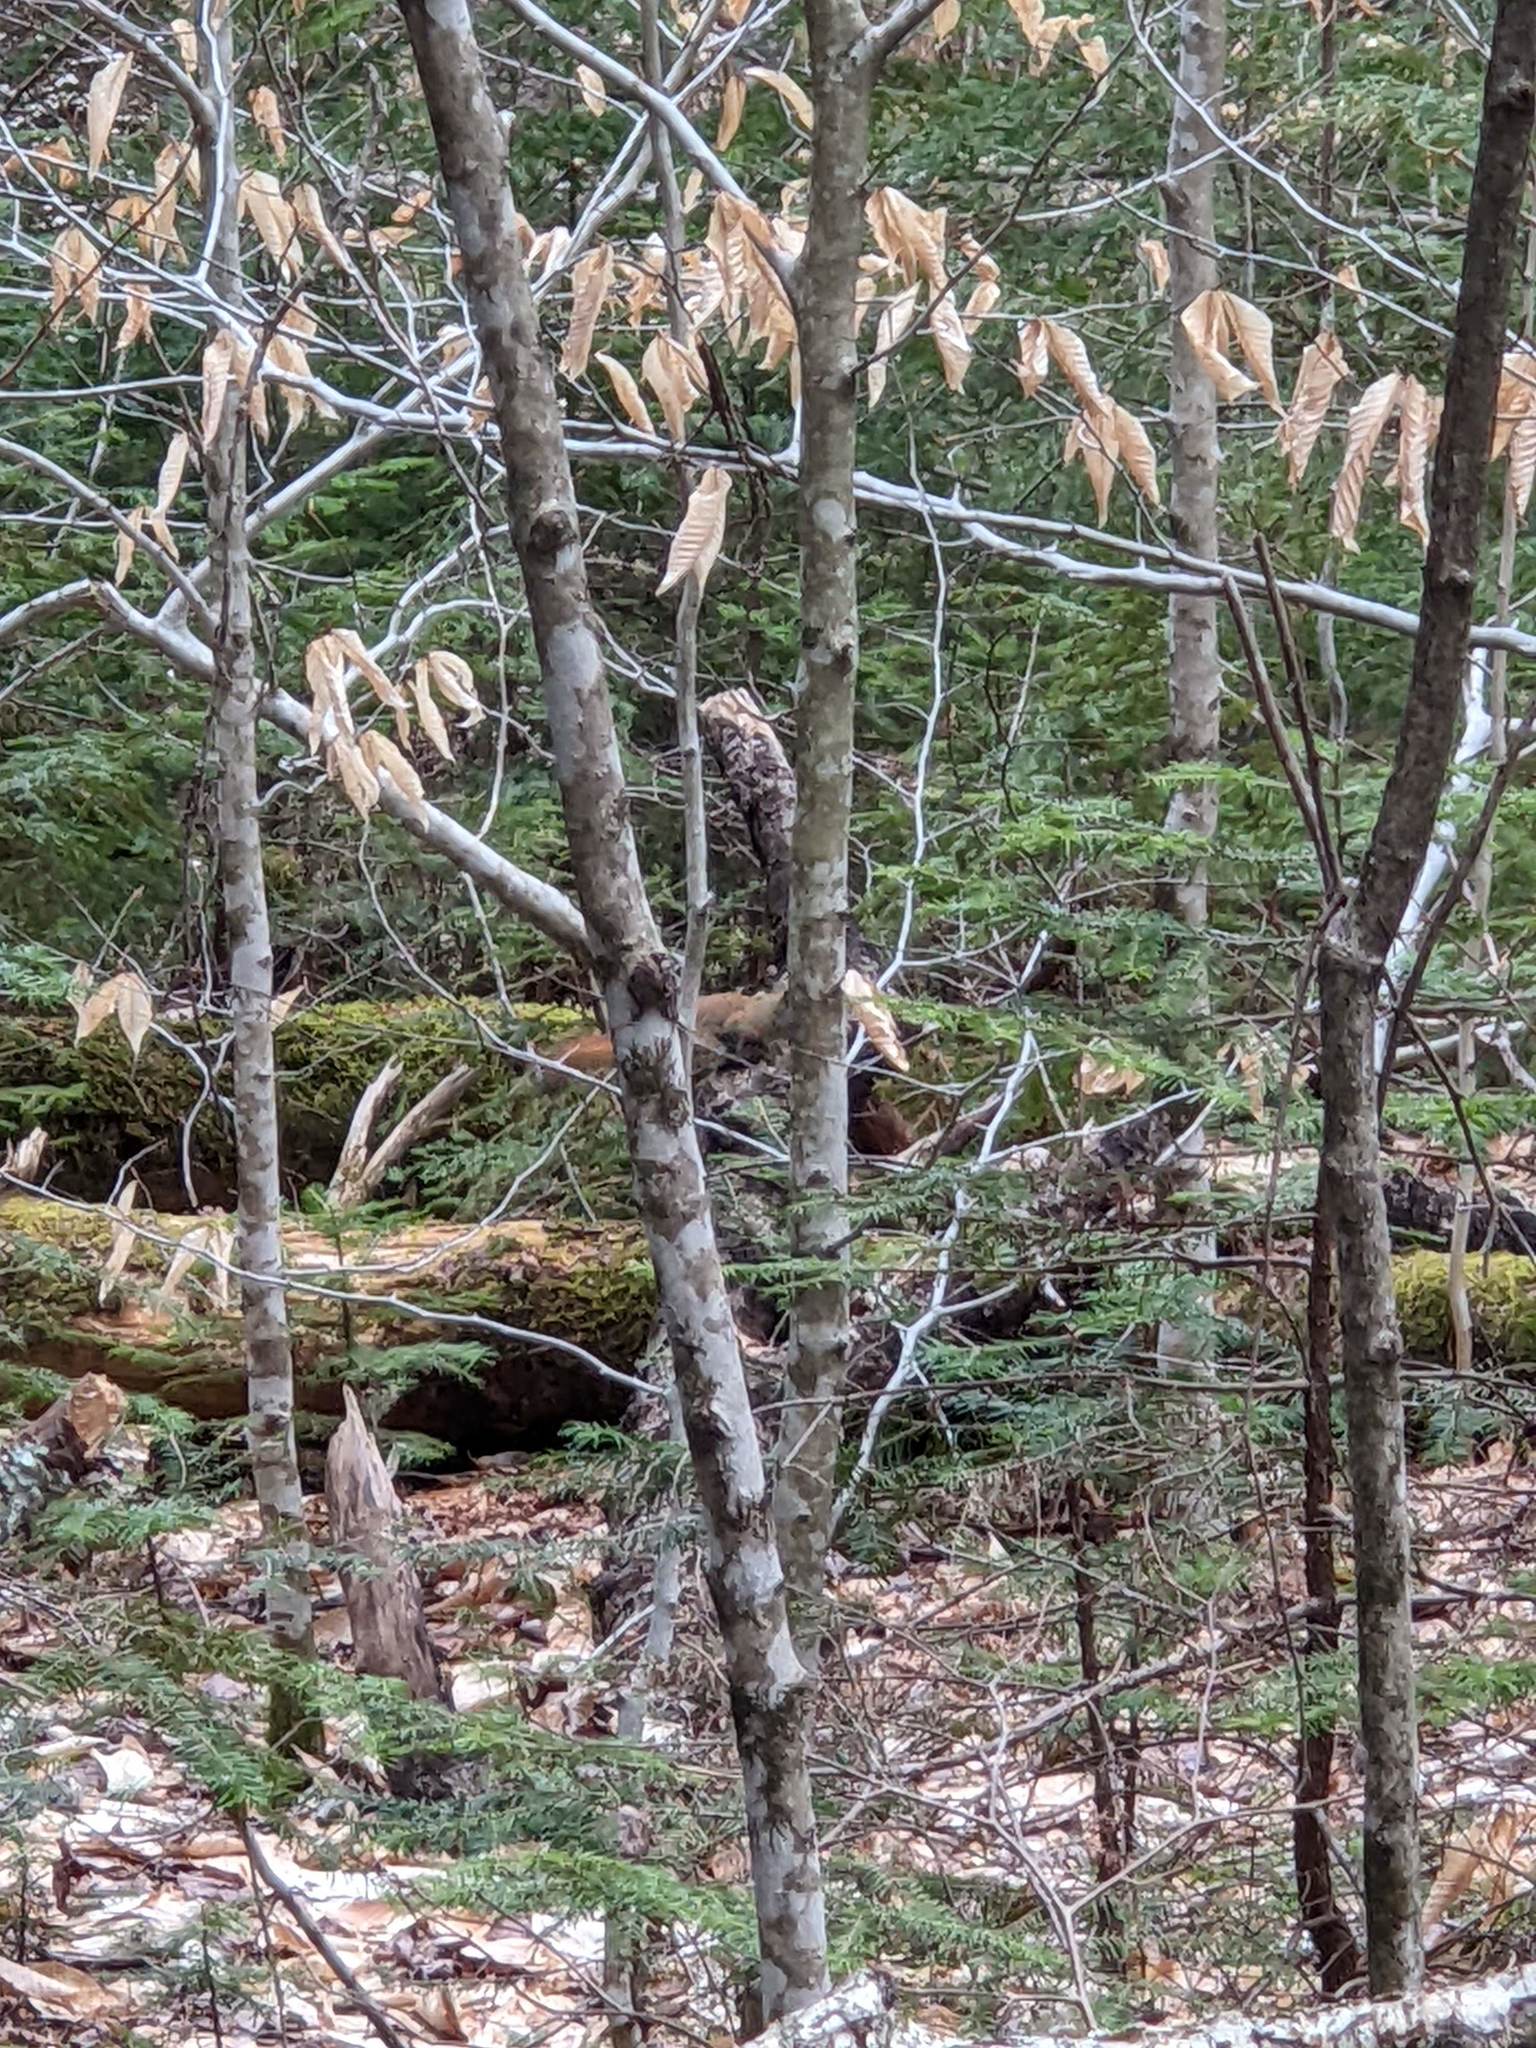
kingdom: Animalia
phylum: Chordata
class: Mammalia
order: Rodentia
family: Sciuridae
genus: Tamiasciurus
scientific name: Tamiasciurus hudsonicus
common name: Red squirrel
